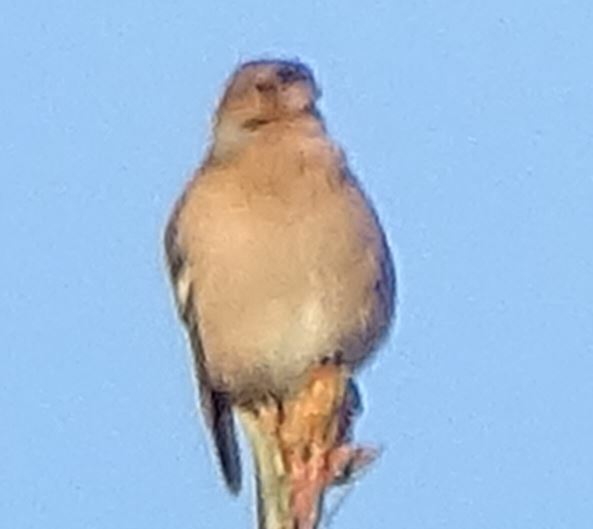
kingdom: Animalia
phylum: Chordata
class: Aves
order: Passeriformes
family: Fringillidae
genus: Fringilla
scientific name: Fringilla coelebs
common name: Common chaffinch
